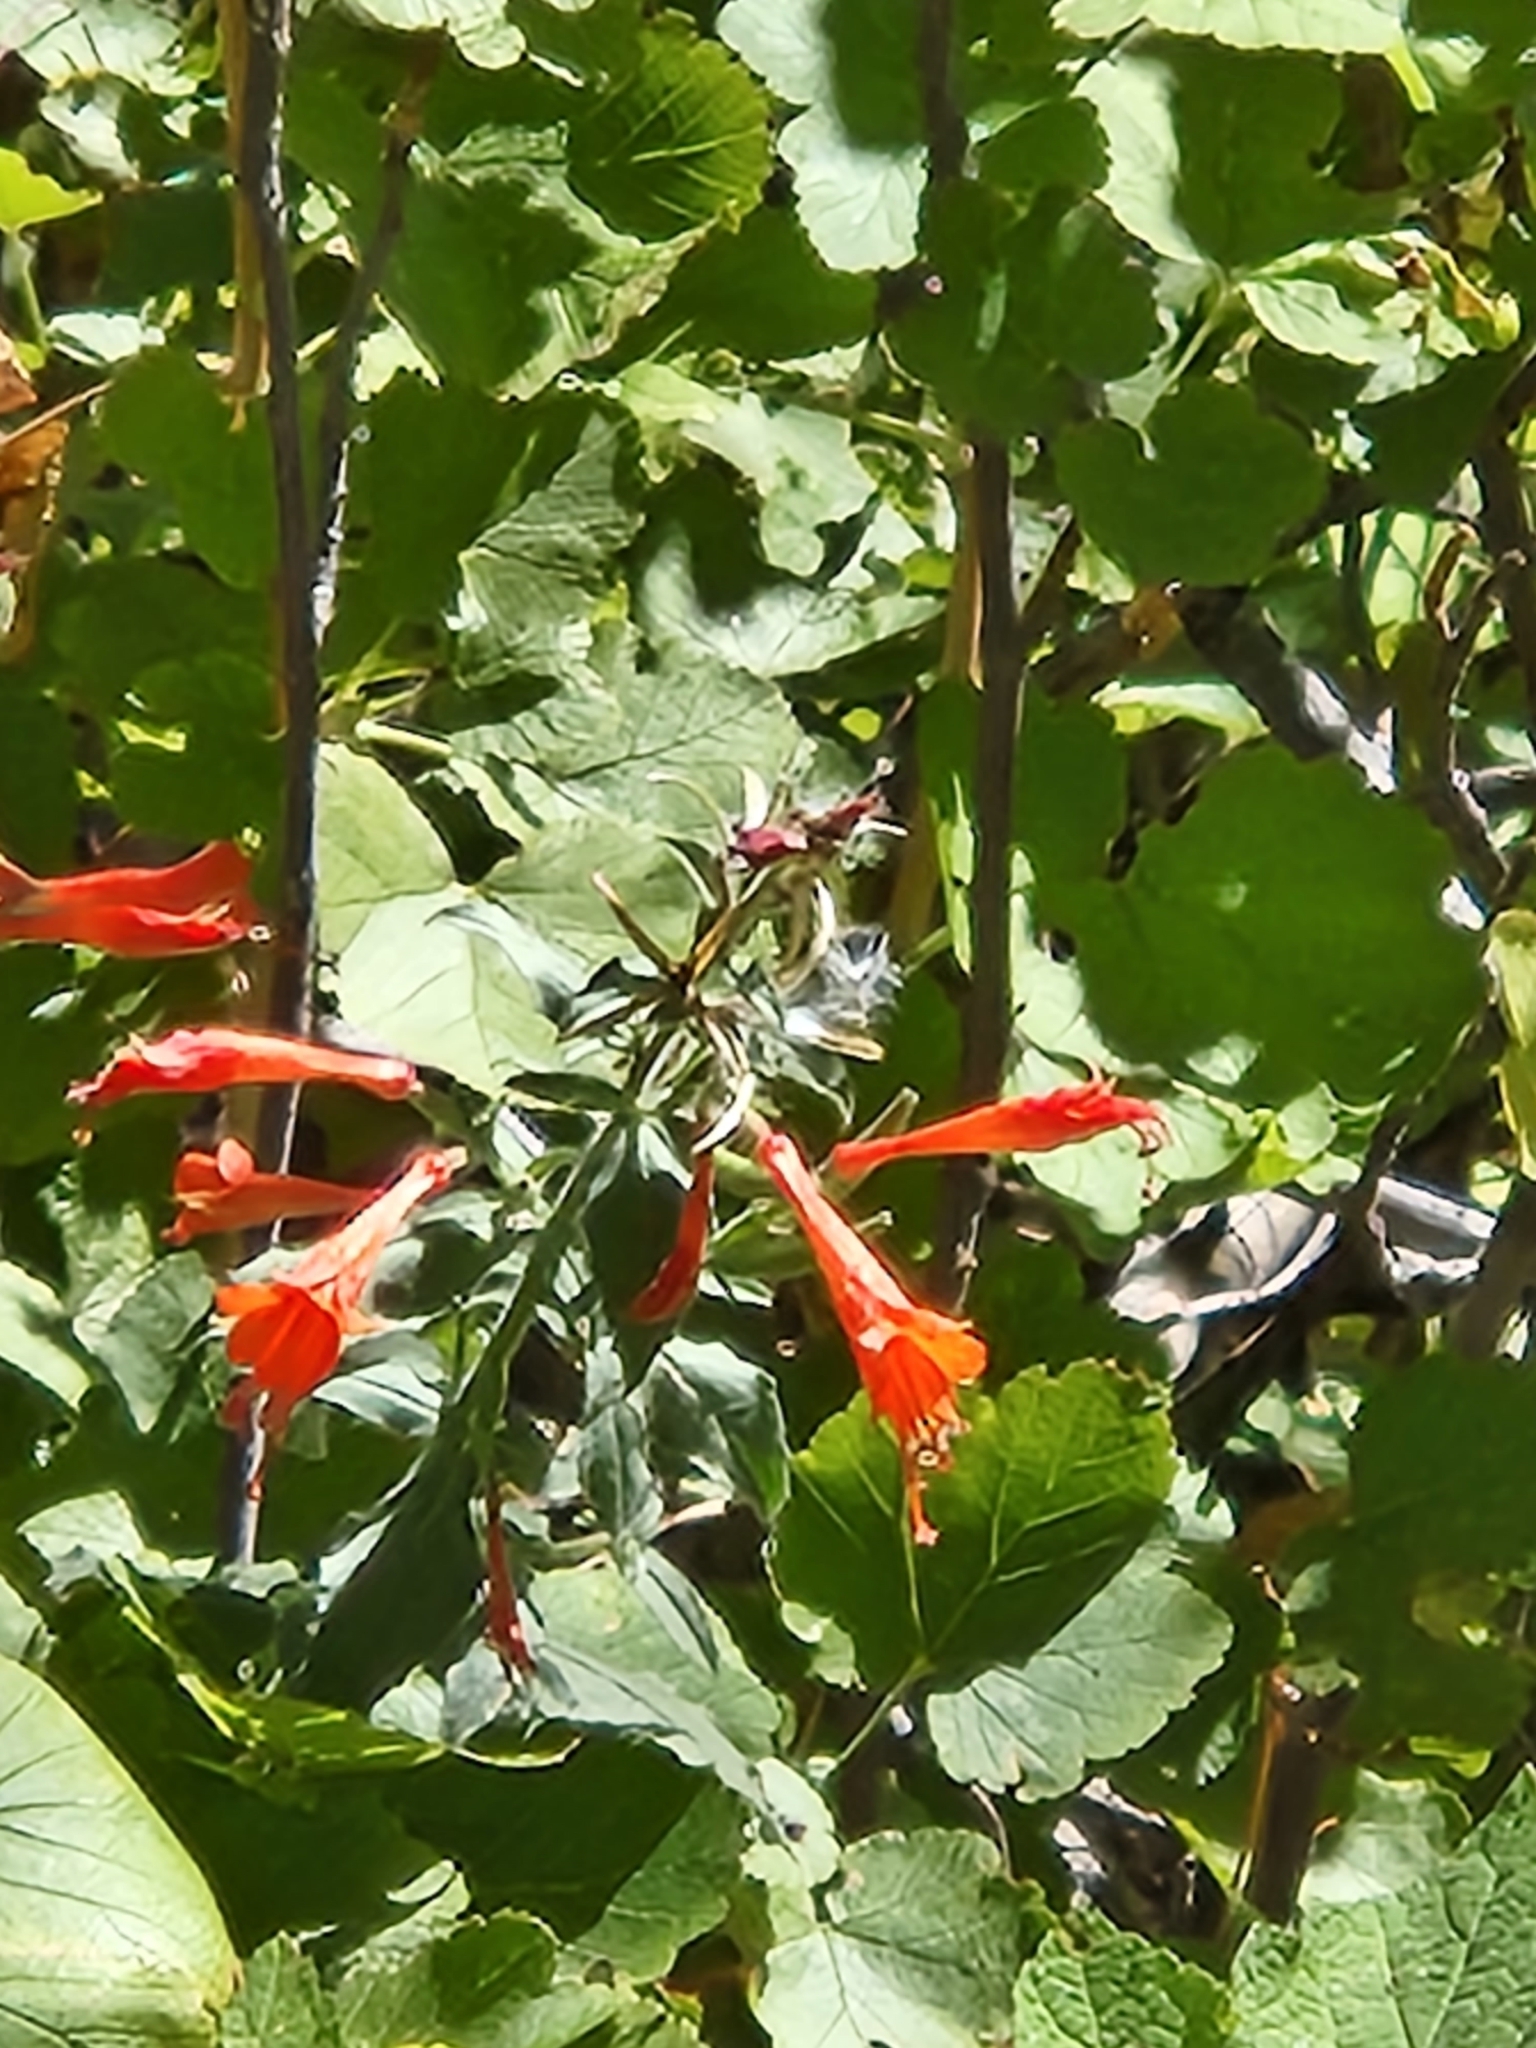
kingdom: Plantae
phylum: Tracheophyta
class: Magnoliopsida
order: Myrtales
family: Onagraceae
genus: Epilobium
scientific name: Epilobium canum
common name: California-fuchsia
